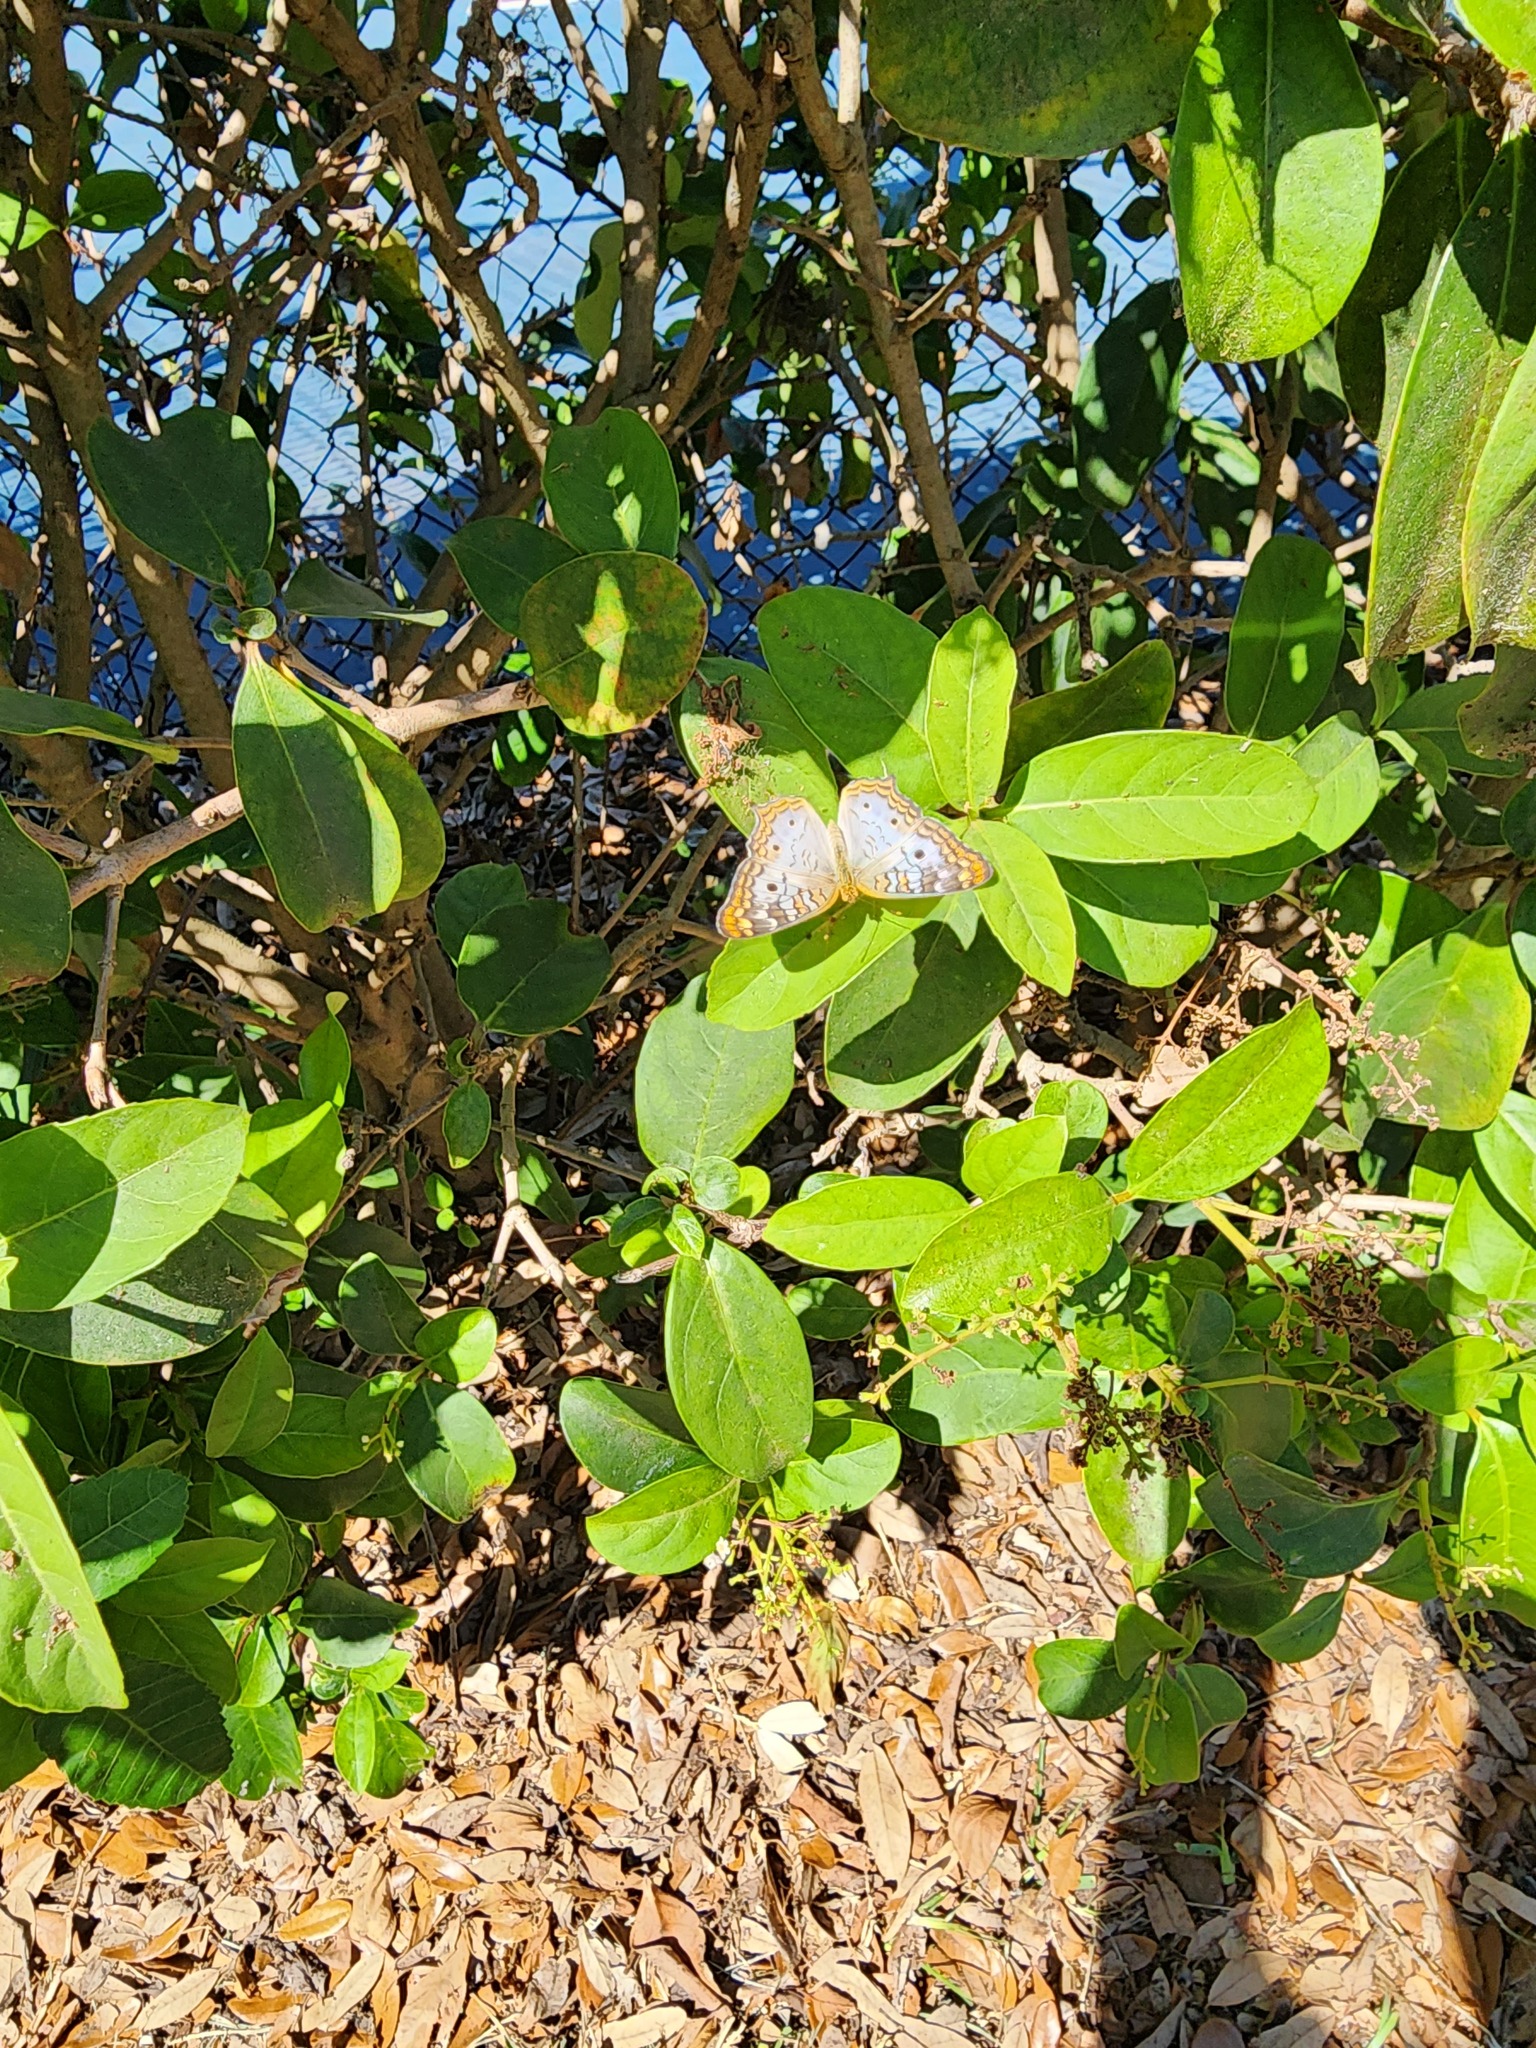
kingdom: Animalia
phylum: Arthropoda
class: Insecta
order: Lepidoptera
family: Nymphalidae
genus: Anartia
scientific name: Anartia jatrophae
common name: White peacock
